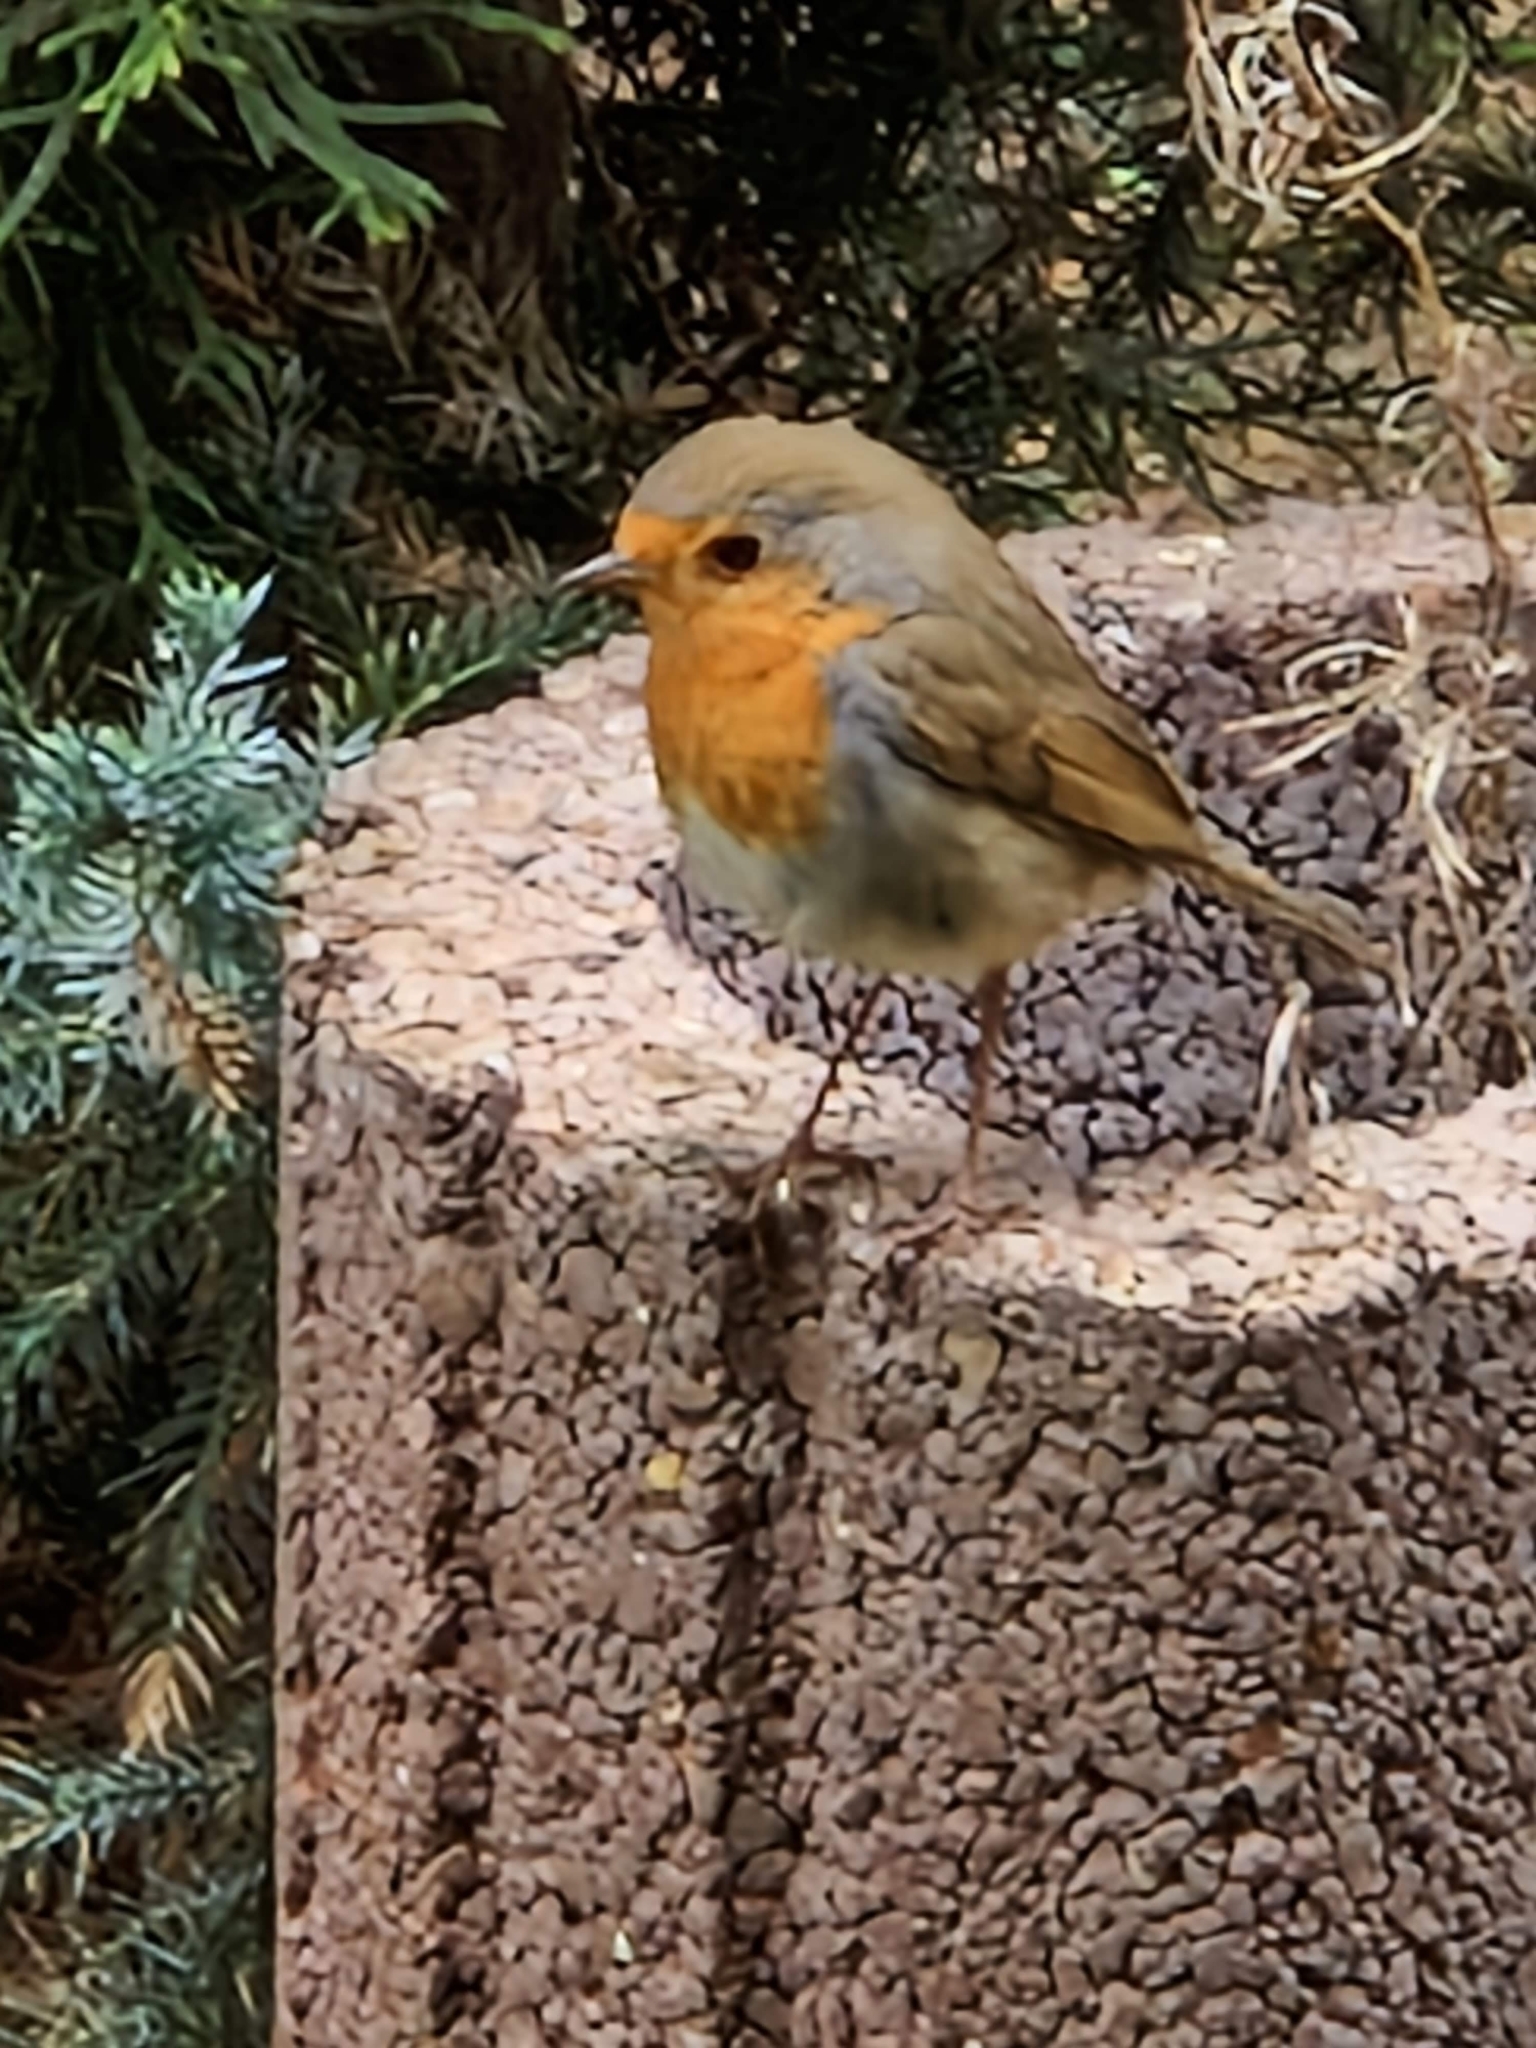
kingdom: Animalia
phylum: Chordata
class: Aves
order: Passeriformes
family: Muscicapidae
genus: Erithacus
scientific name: Erithacus rubecula
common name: European robin
